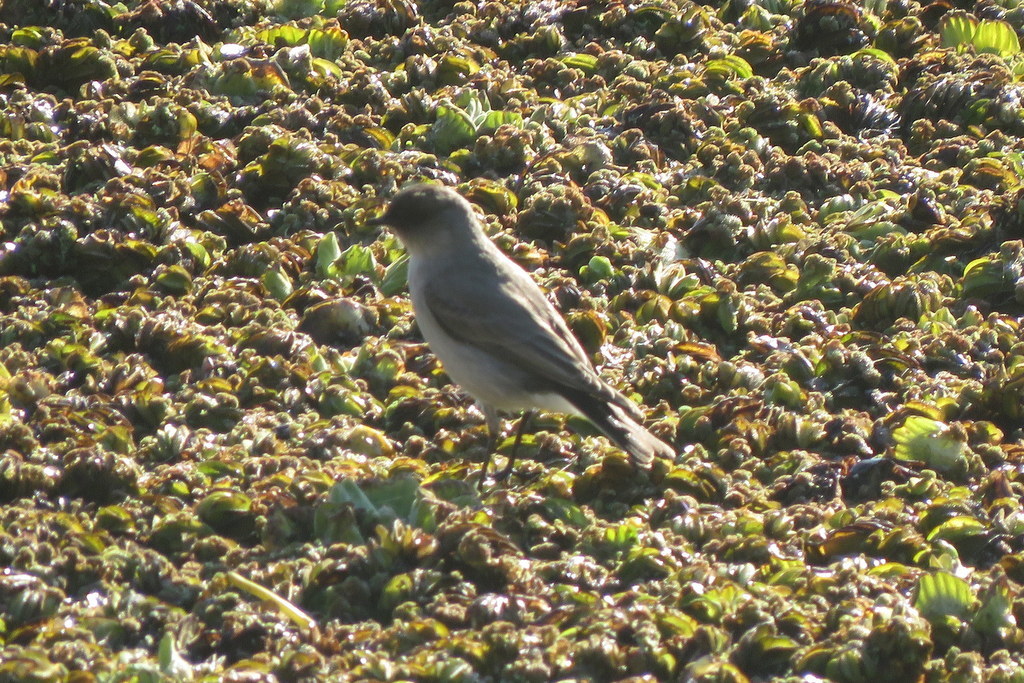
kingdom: Animalia
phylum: Chordata
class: Aves
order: Passeriformes
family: Tyrannidae
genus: Muscisaxicola
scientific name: Muscisaxicola maclovianus
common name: Dark-faced ground tyrant
